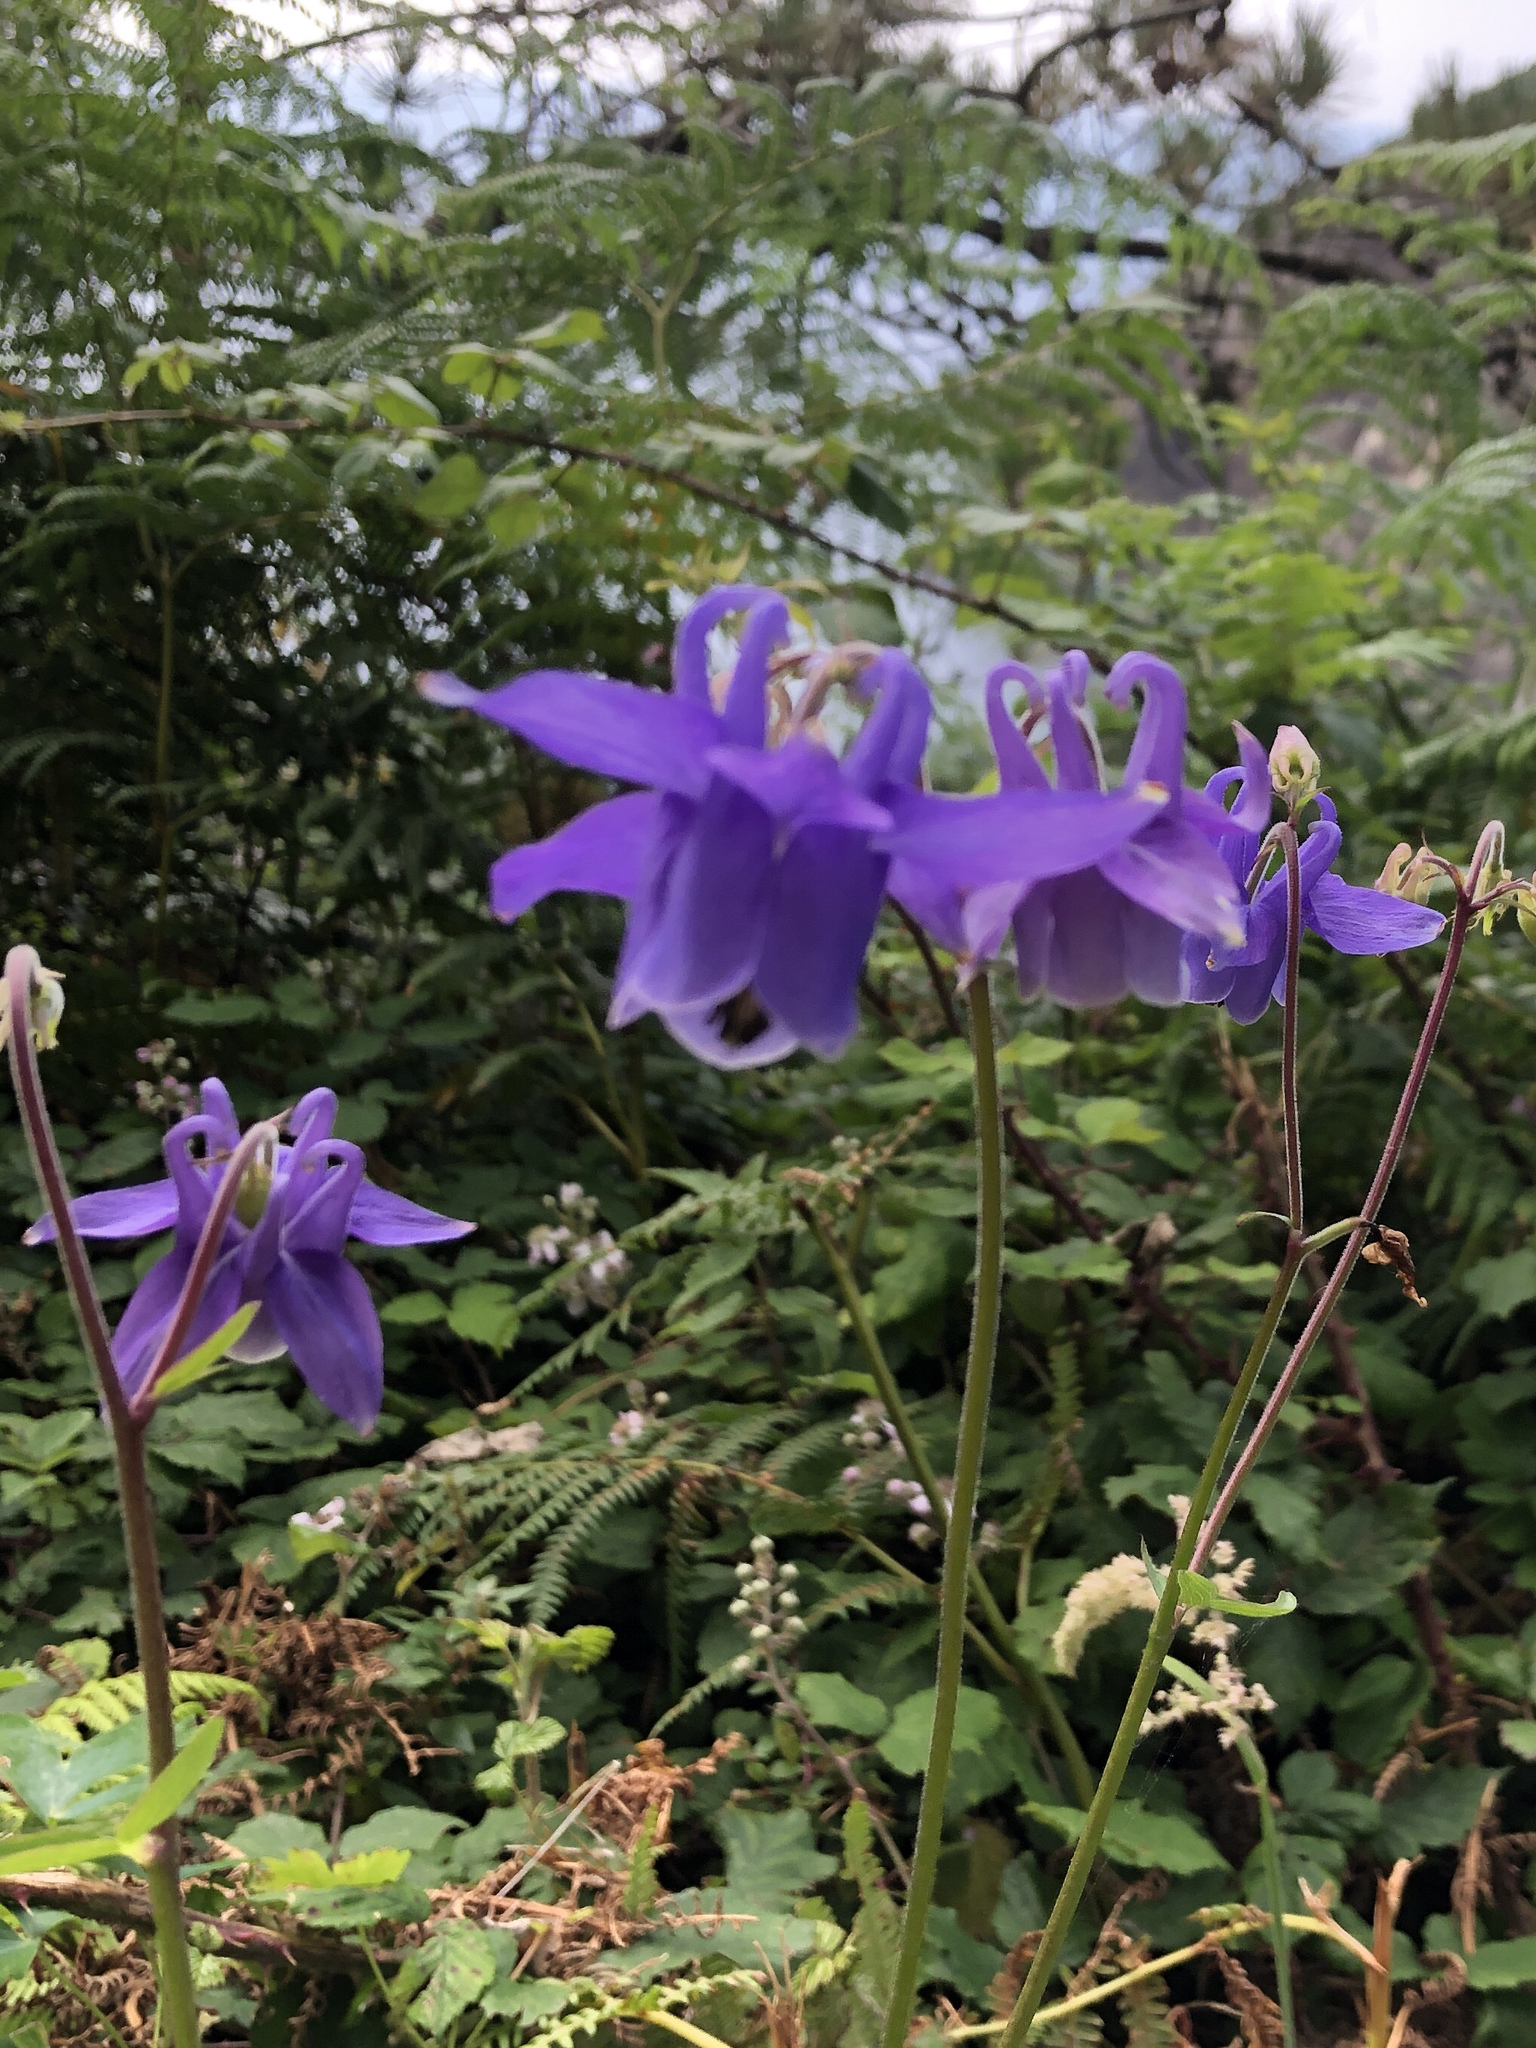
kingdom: Plantae
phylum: Tracheophyta
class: Magnoliopsida
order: Ranunculales
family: Ranunculaceae
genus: Aquilegia
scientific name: Aquilegia vulgaris
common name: Columbine
